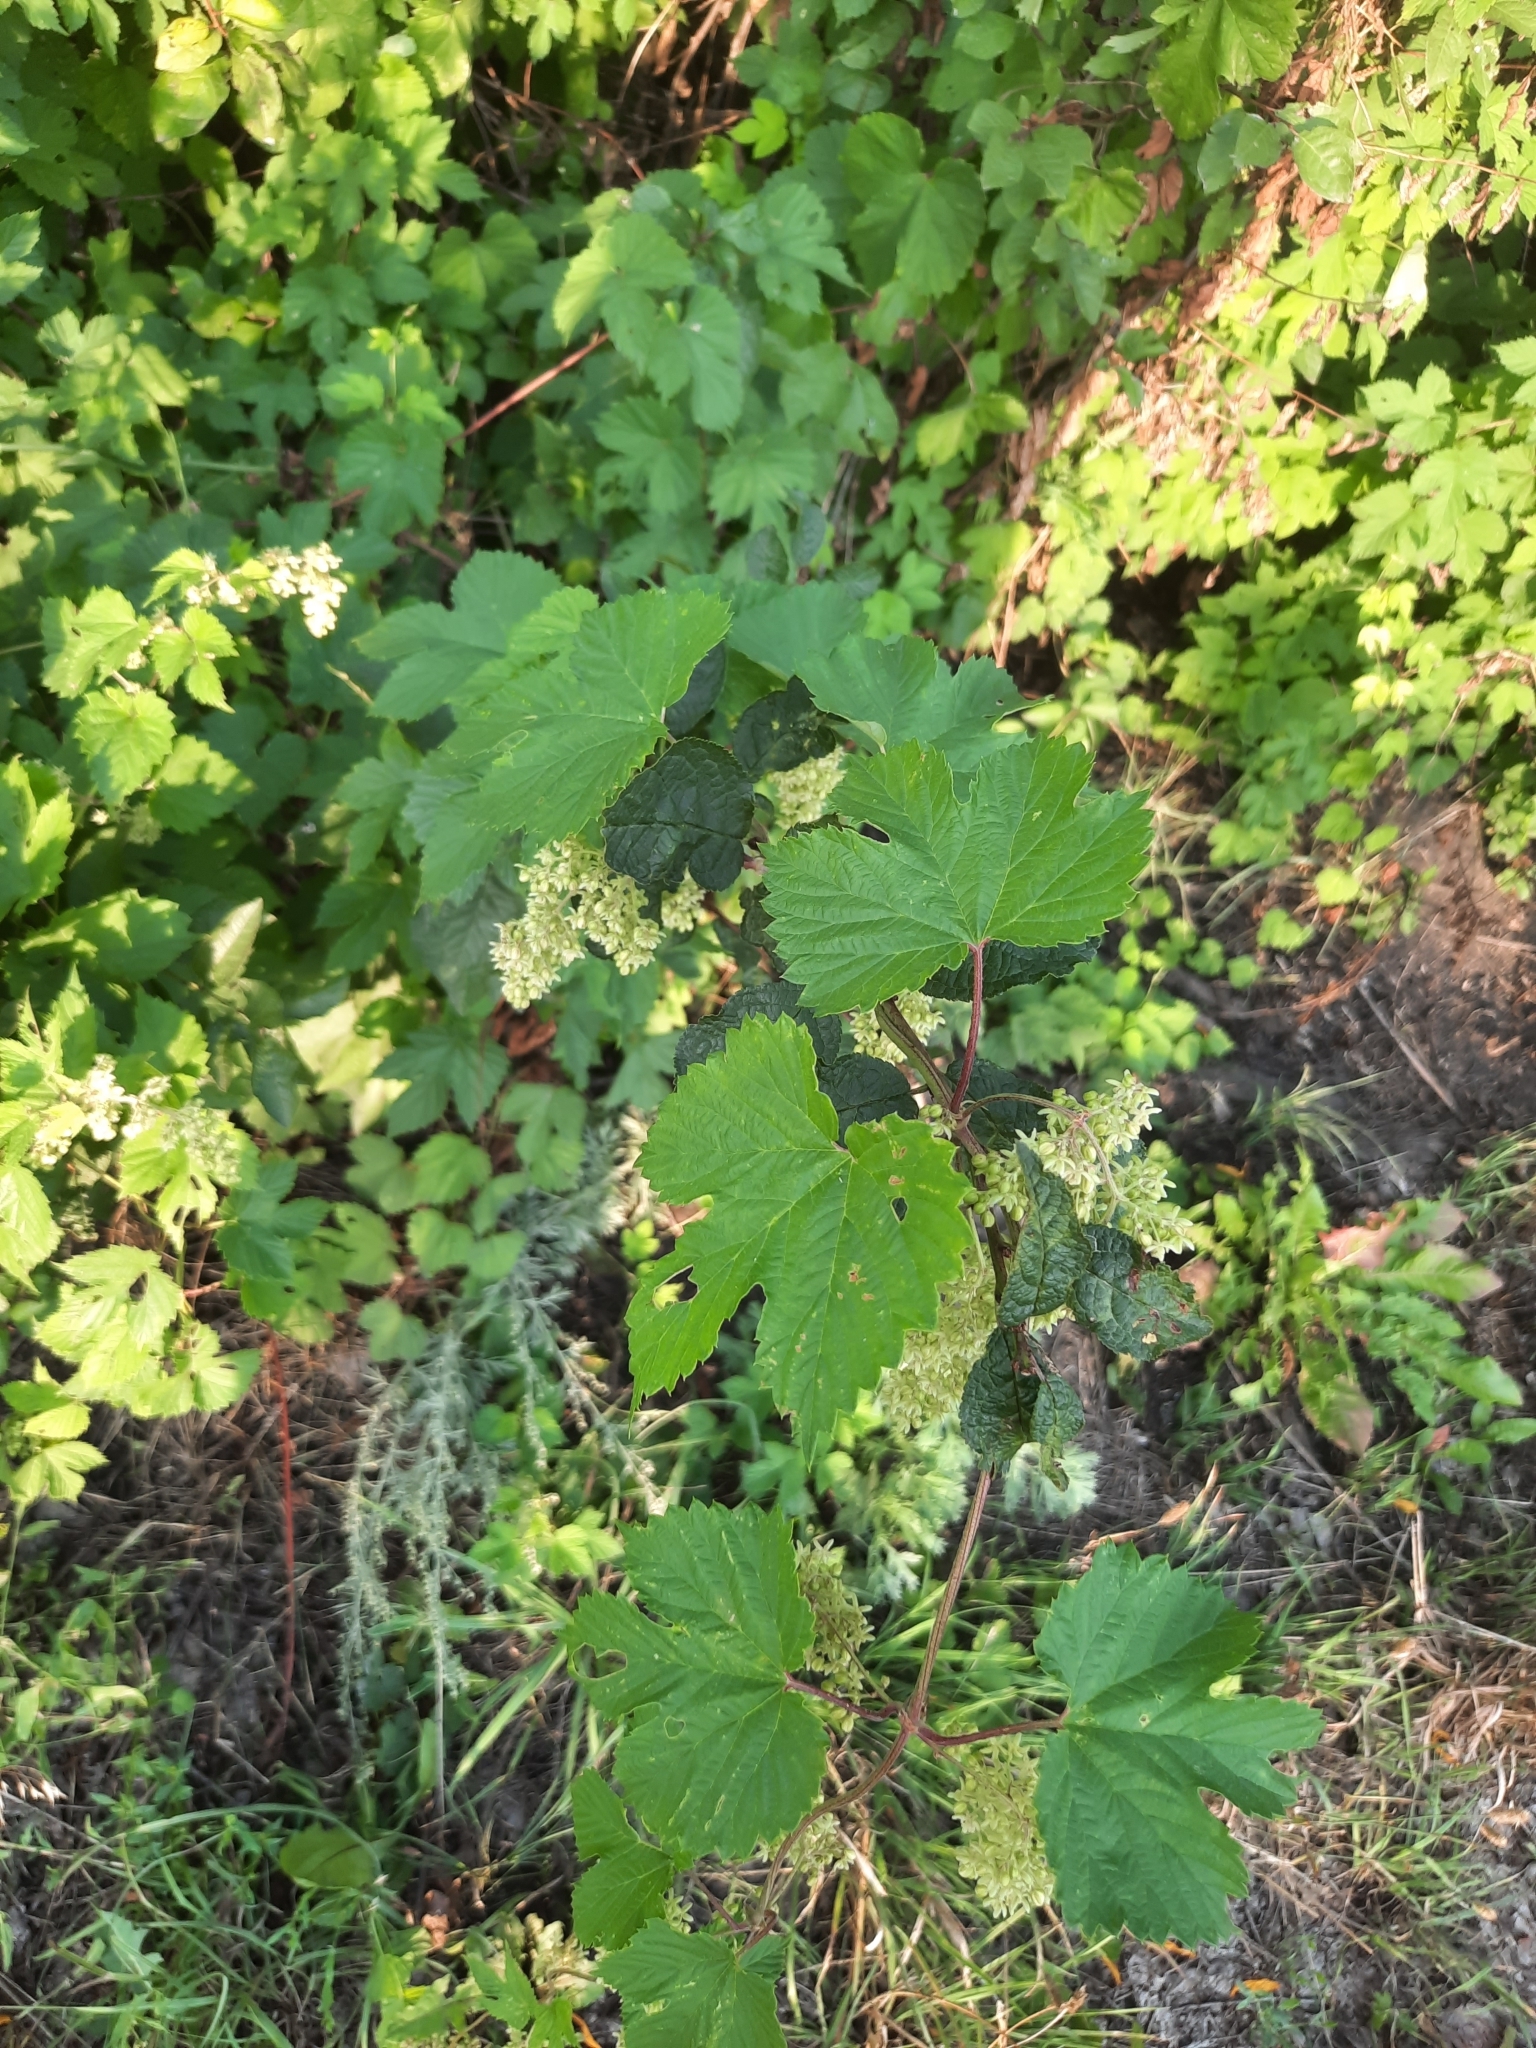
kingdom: Plantae
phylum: Tracheophyta
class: Magnoliopsida
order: Rosales
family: Cannabaceae
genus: Humulus
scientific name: Humulus lupulus
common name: Hop
